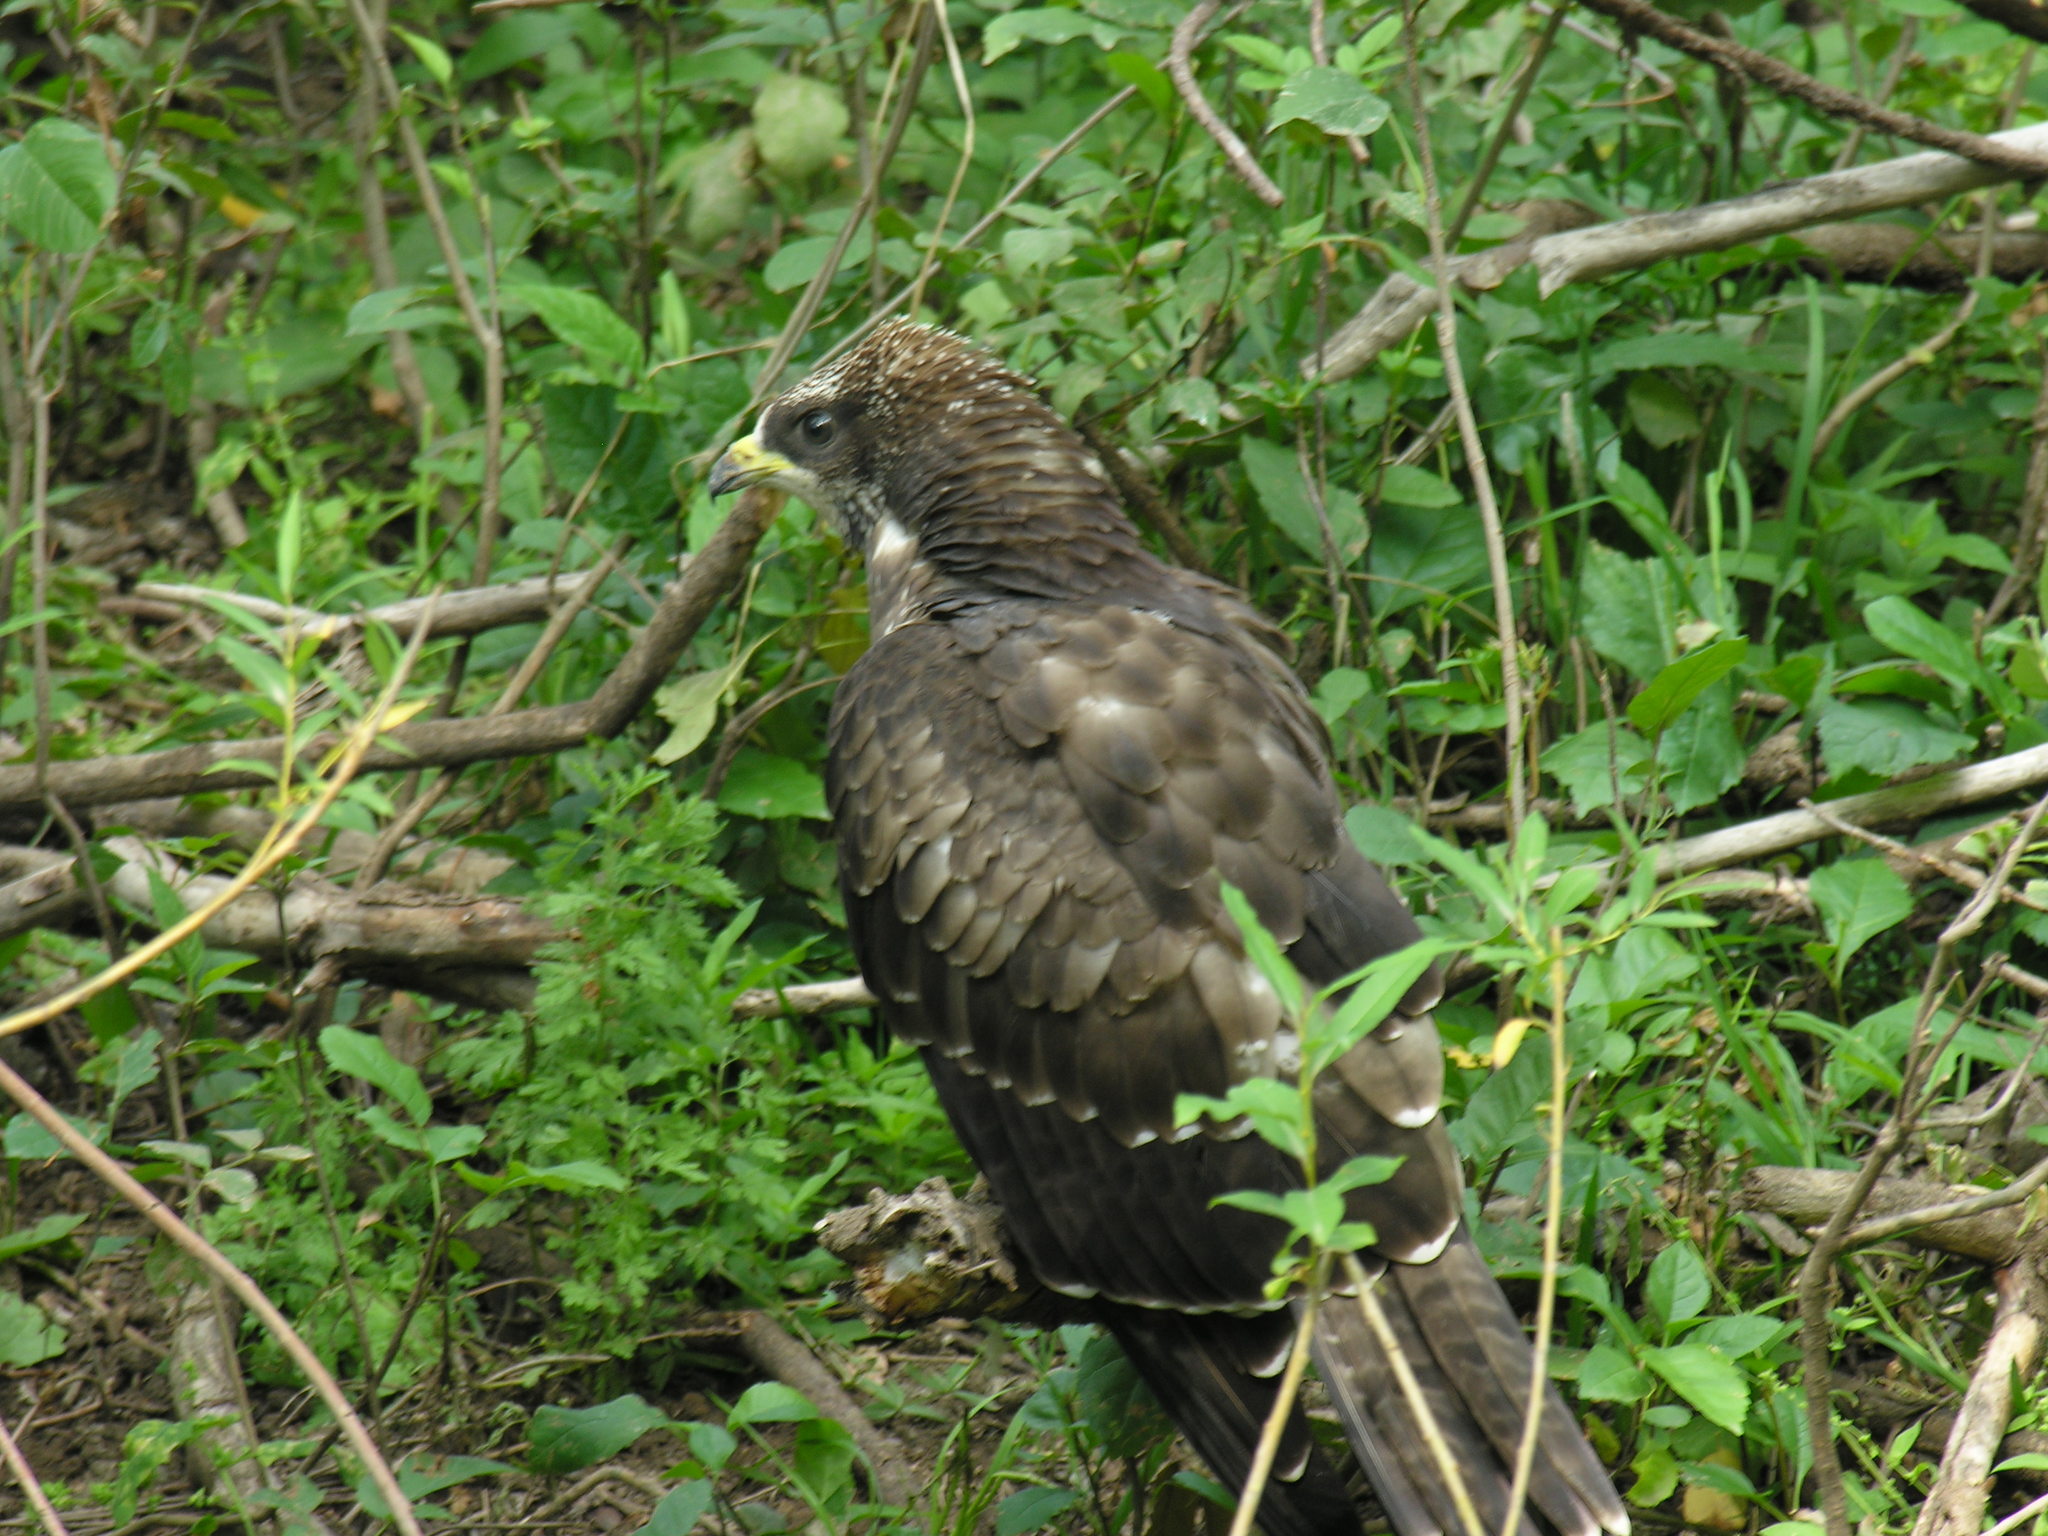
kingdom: Animalia
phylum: Chordata
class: Aves
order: Accipitriformes
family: Accipitridae
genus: Pernis
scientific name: Pernis apivorus
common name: European honey buzzard
